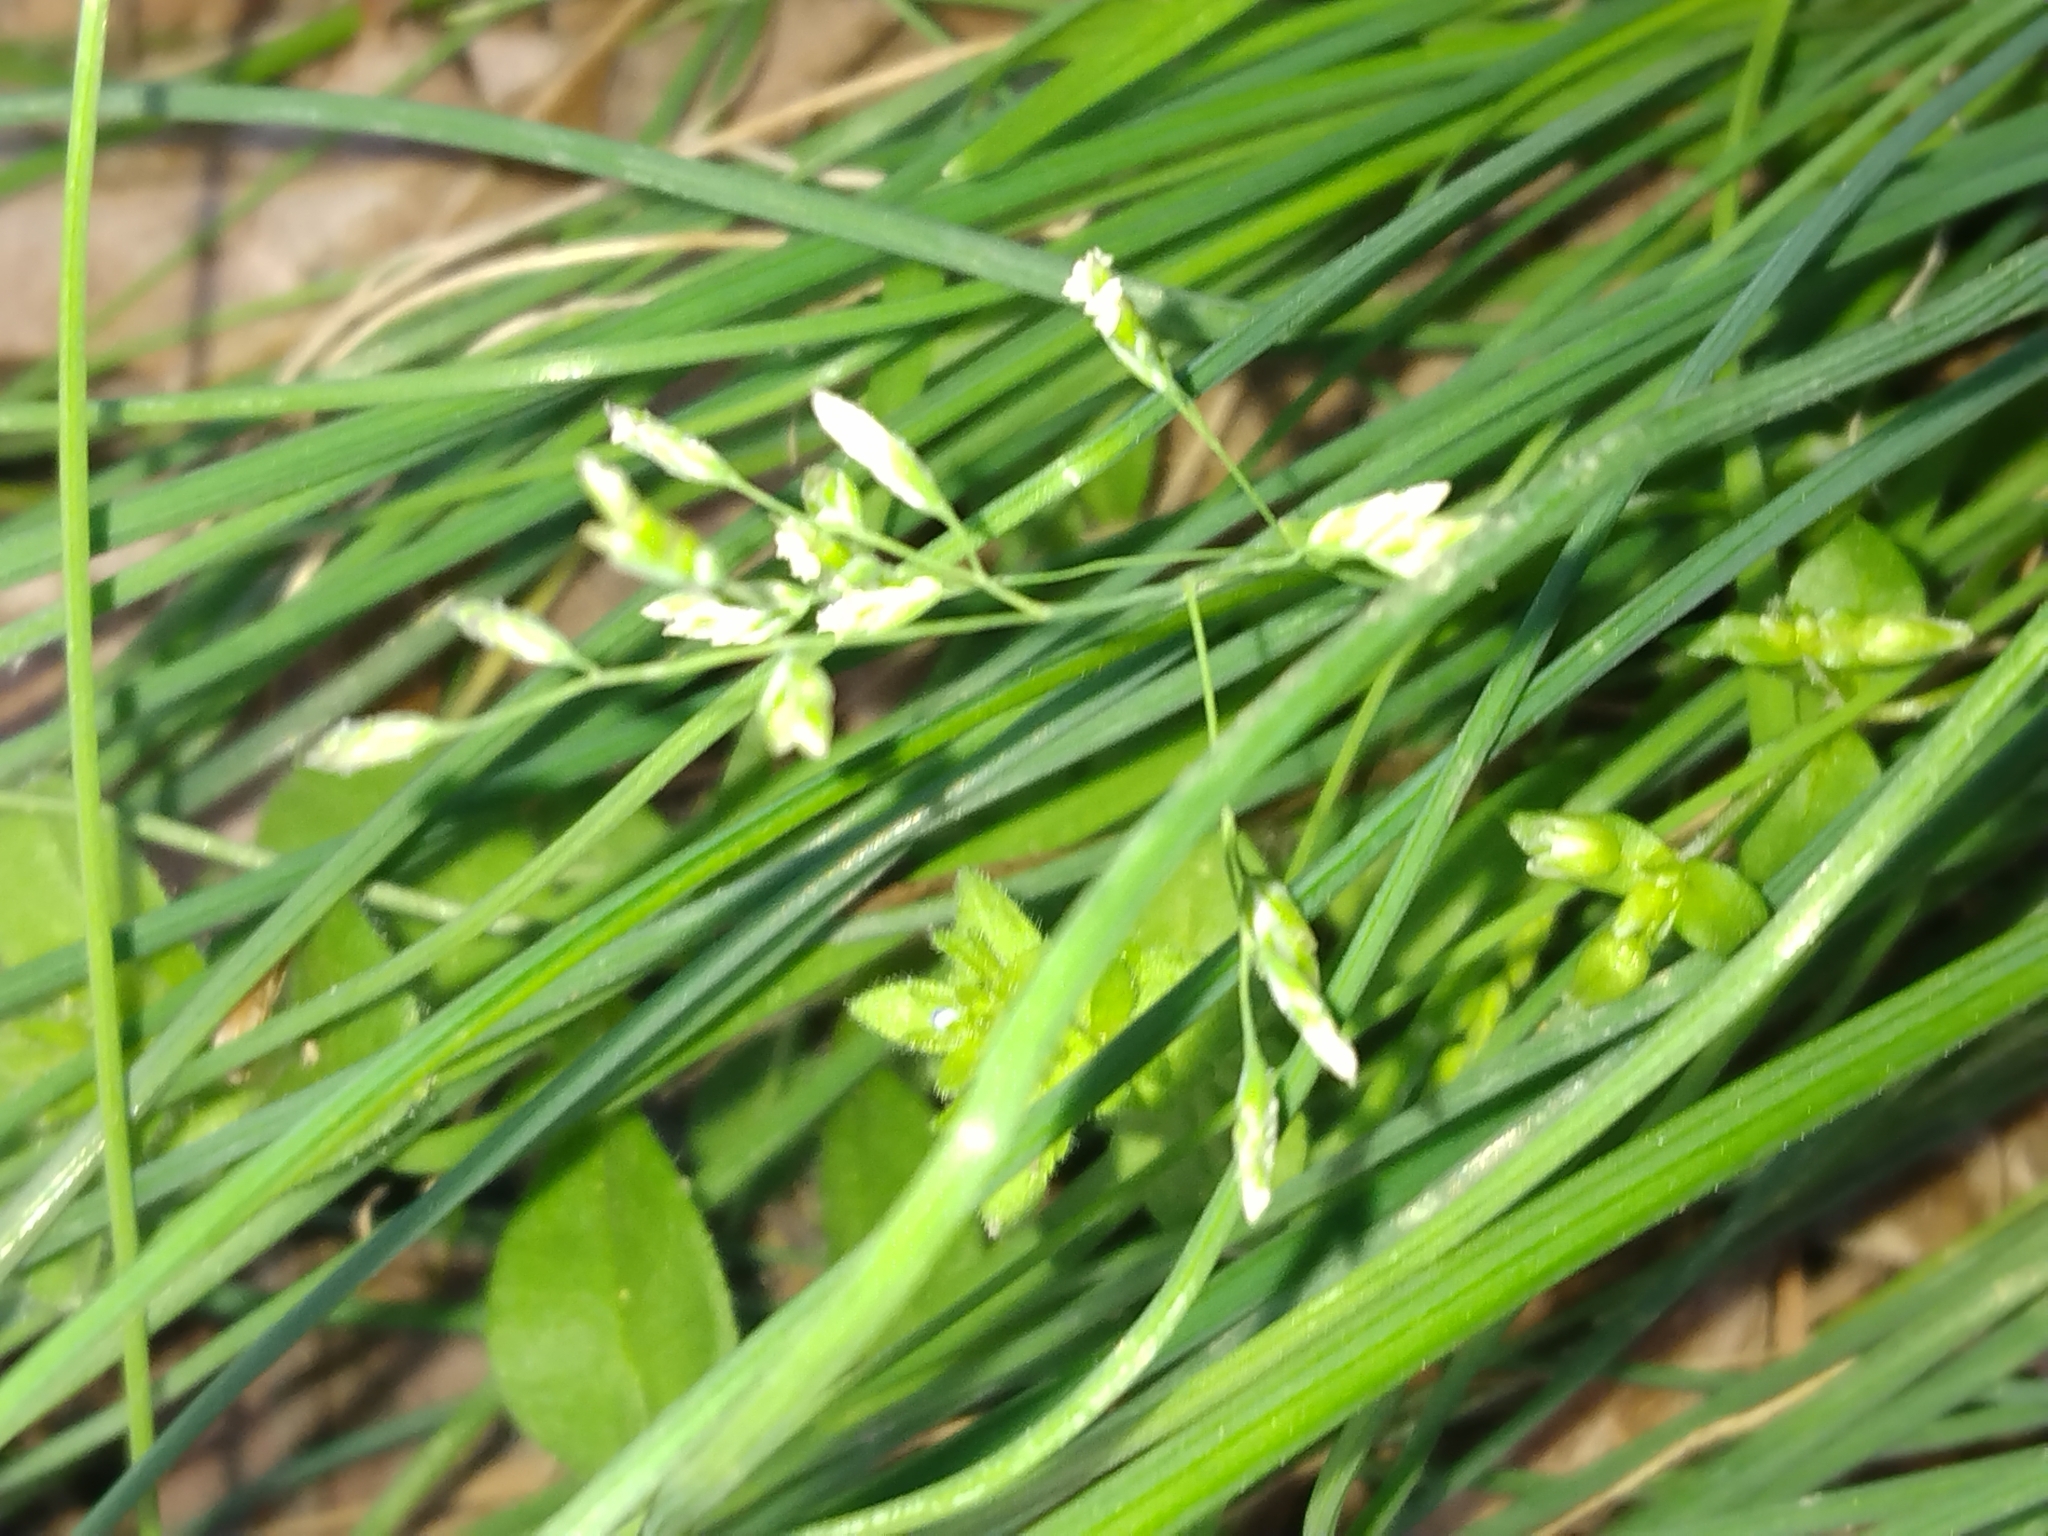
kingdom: Plantae
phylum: Tracheophyta
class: Liliopsida
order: Poales
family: Poaceae
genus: Poa
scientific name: Poa annua
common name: Annual bluegrass
